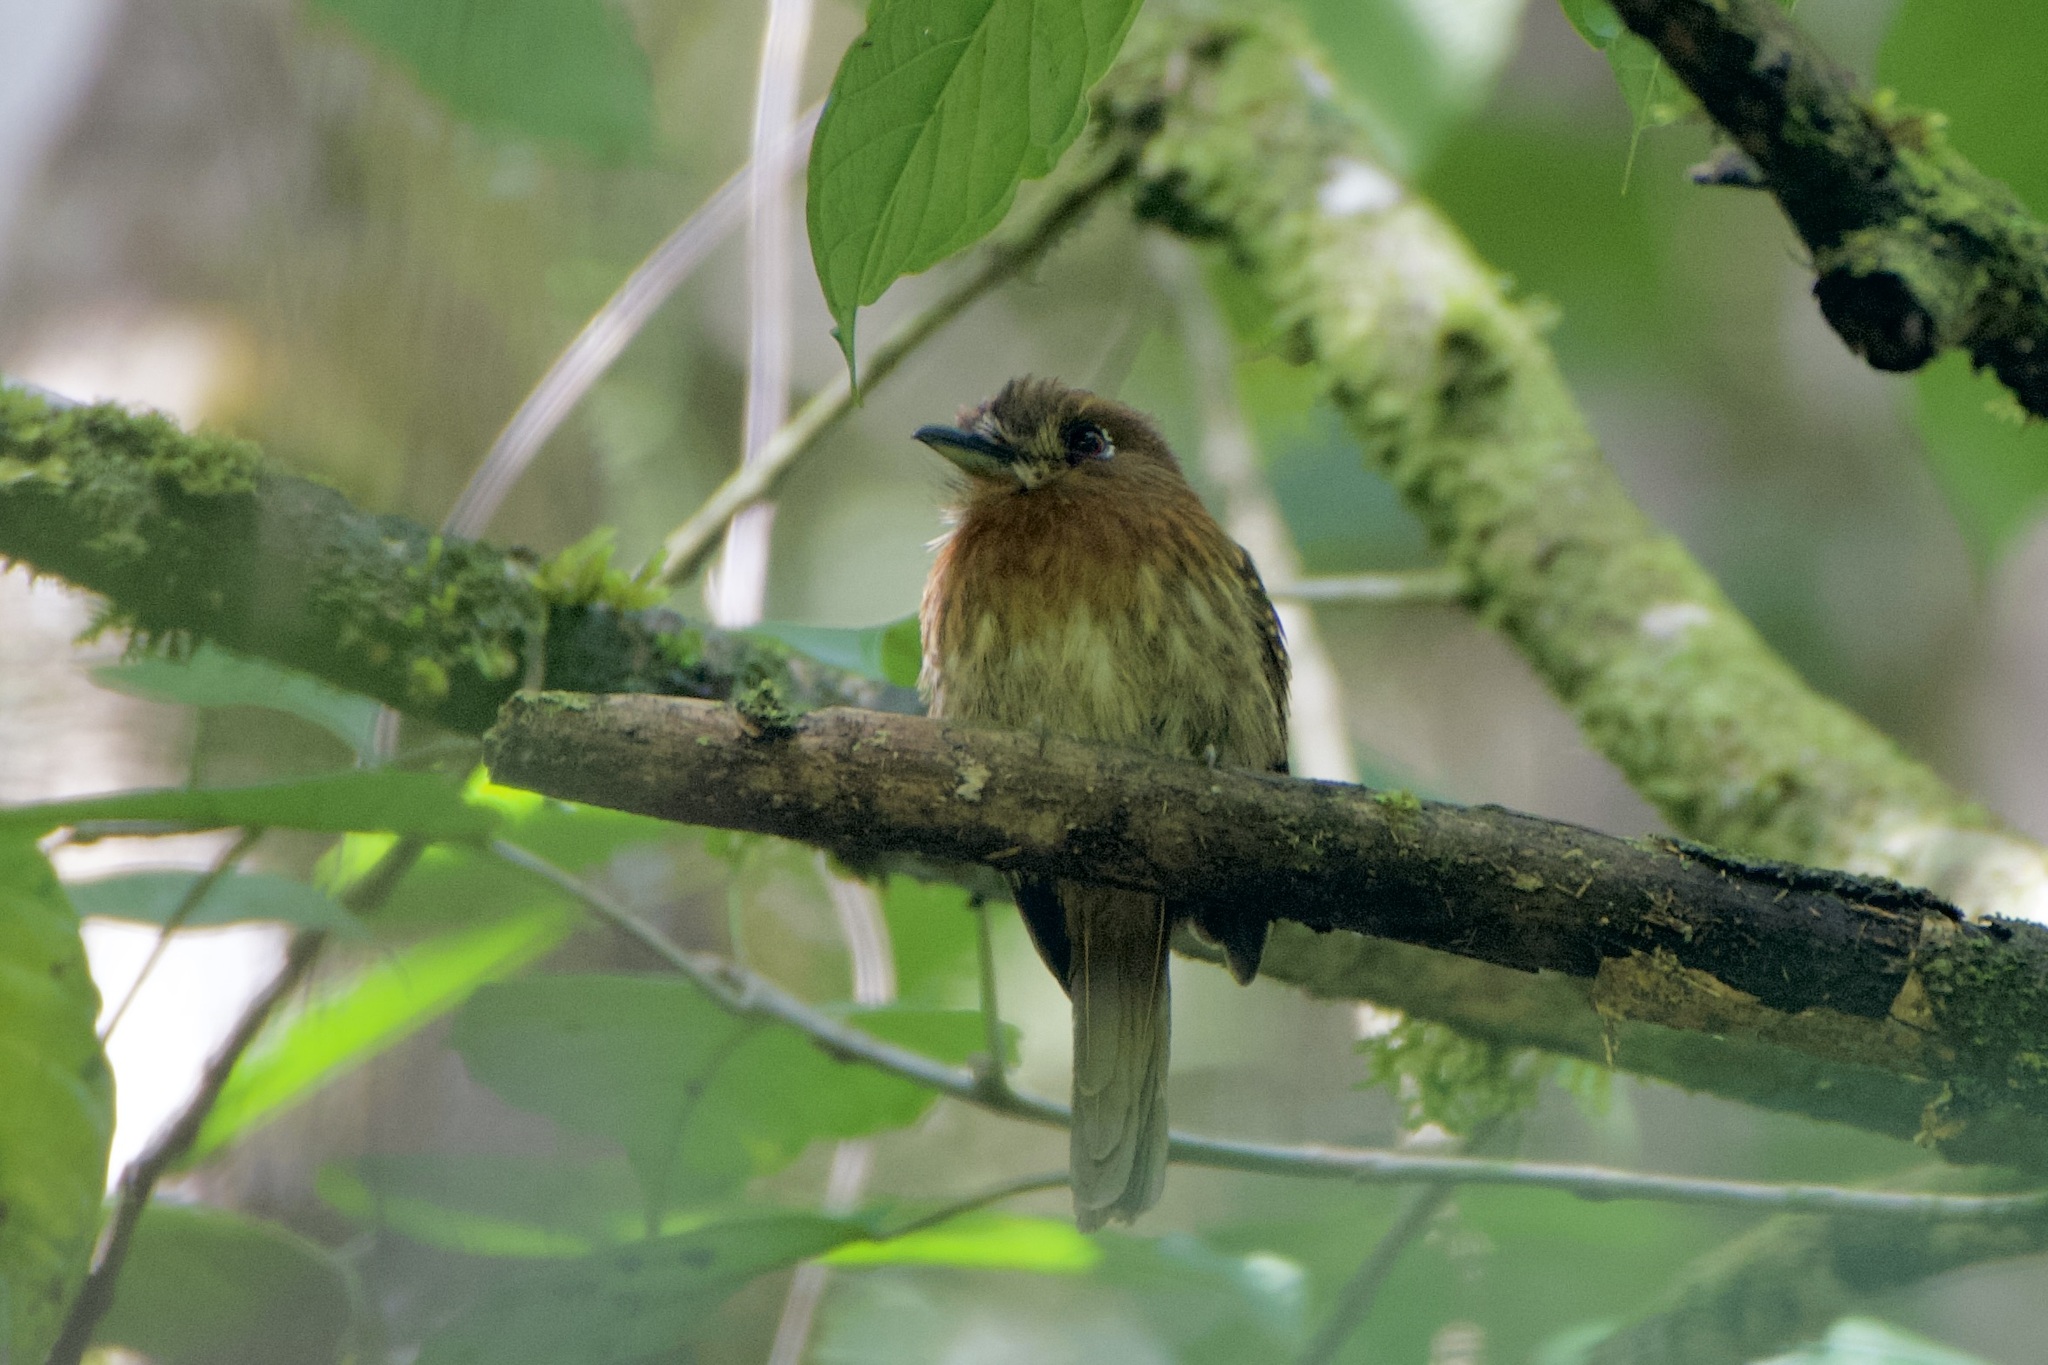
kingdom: Animalia
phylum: Chordata
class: Aves
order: Piciformes
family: Bucconidae
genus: Malacoptila
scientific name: Malacoptila mystacalis
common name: Moustached puffbird
